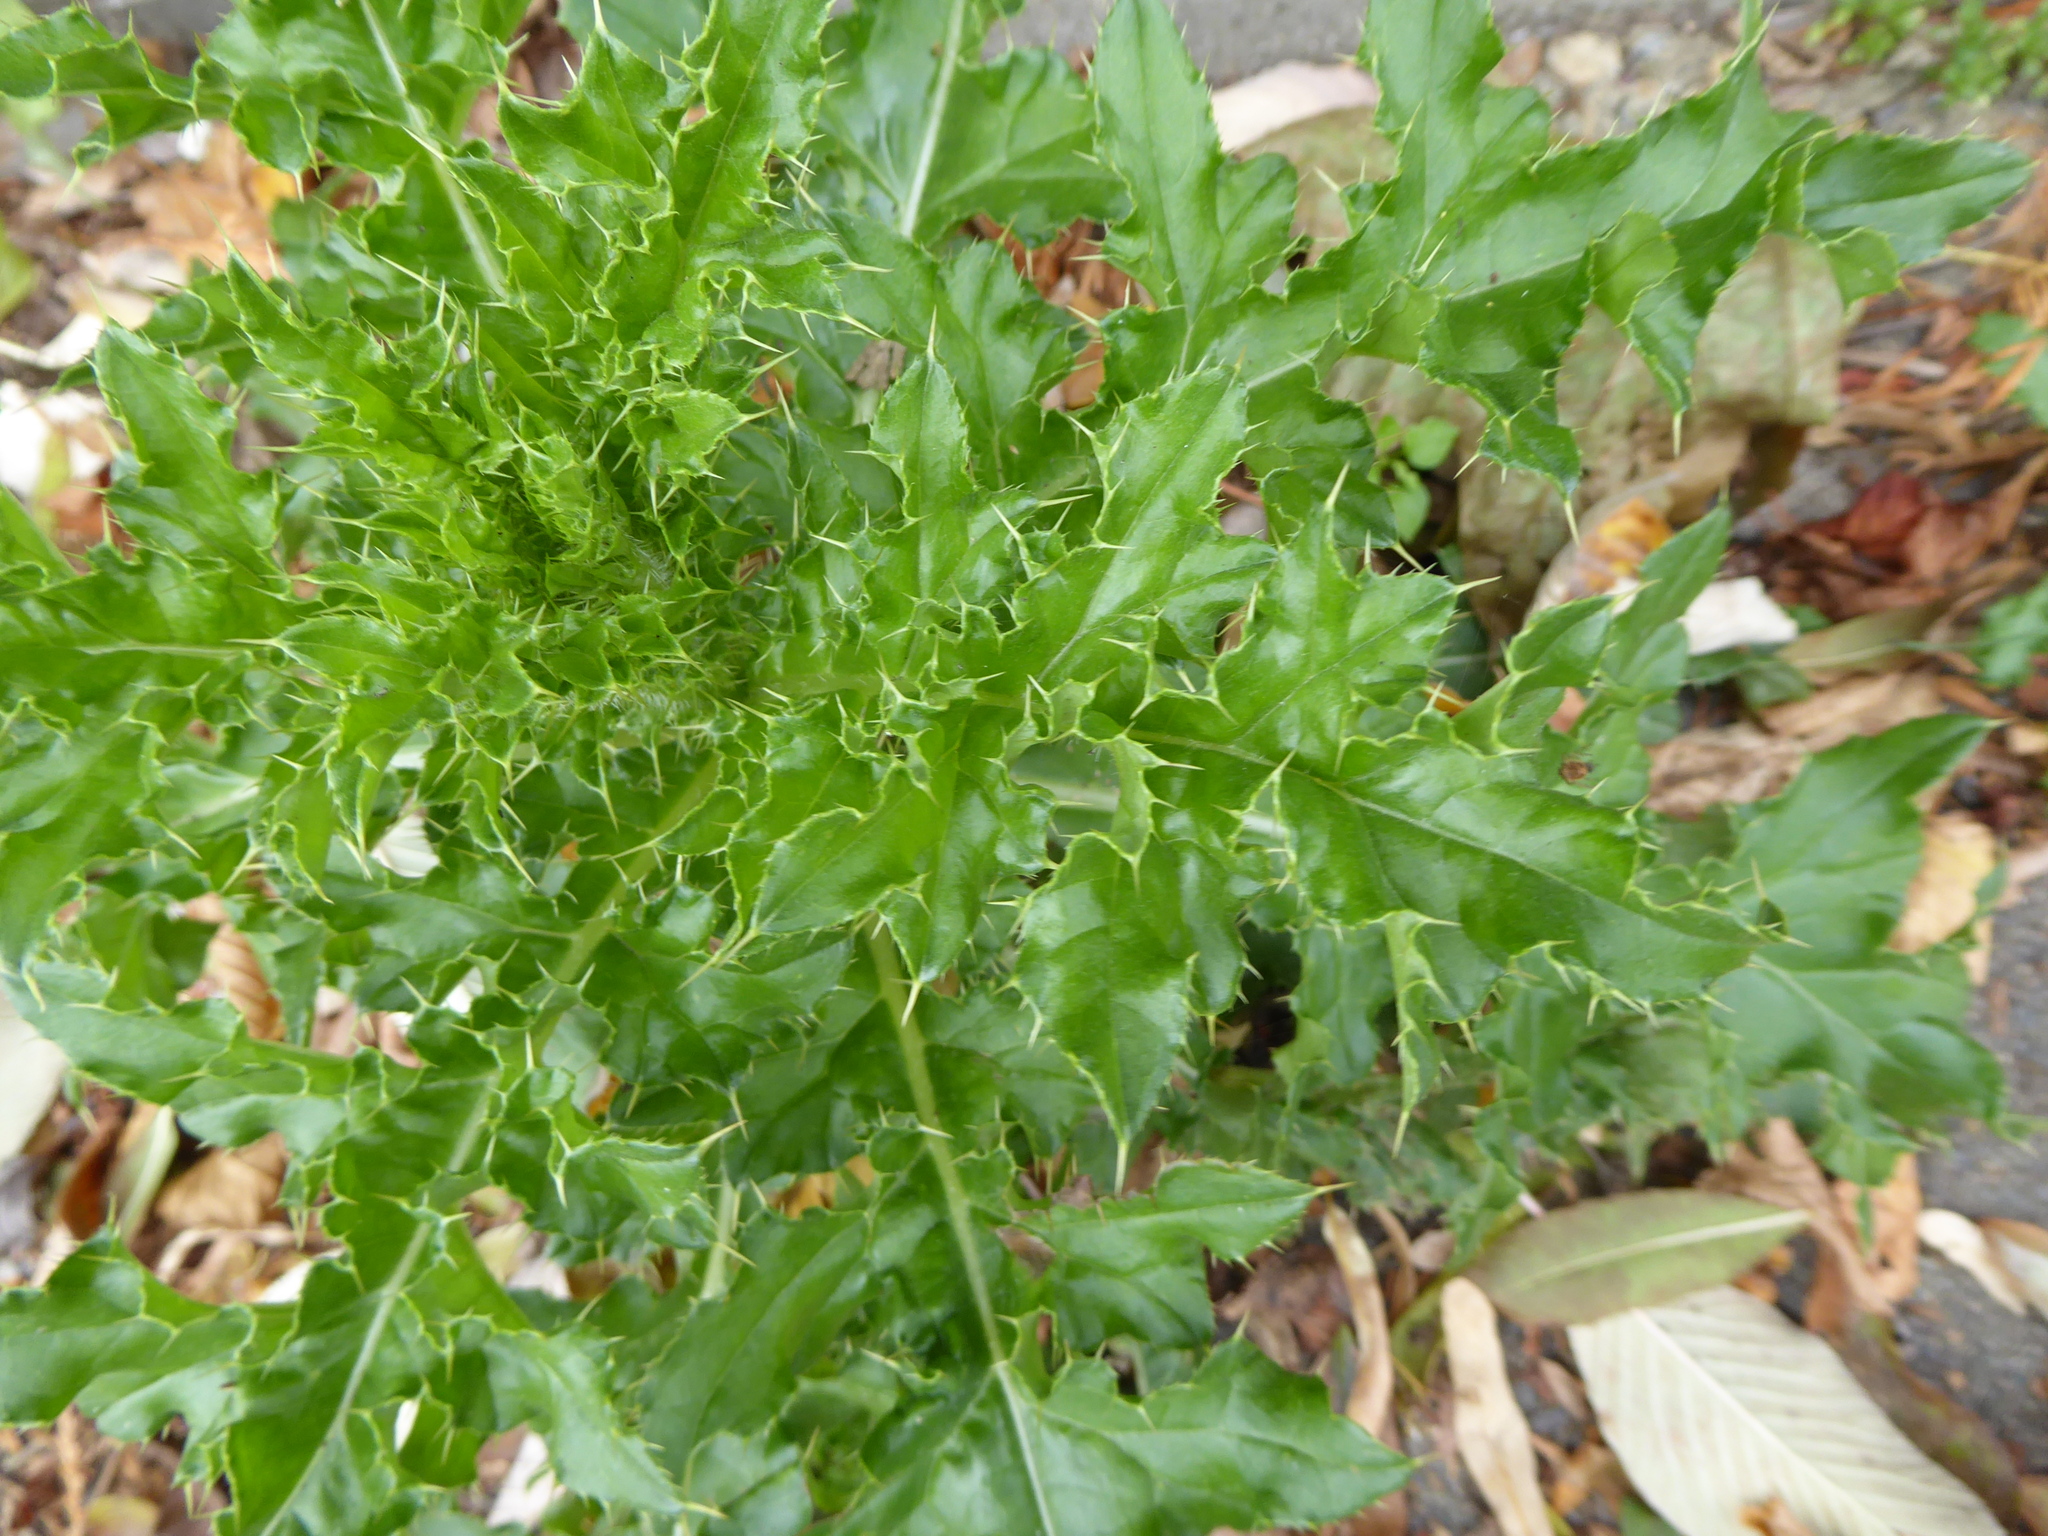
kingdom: Plantae
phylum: Tracheophyta
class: Magnoliopsida
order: Asterales
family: Asteraceae
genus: Cirsium
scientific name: Cirsium arvense
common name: Creeping thistle
